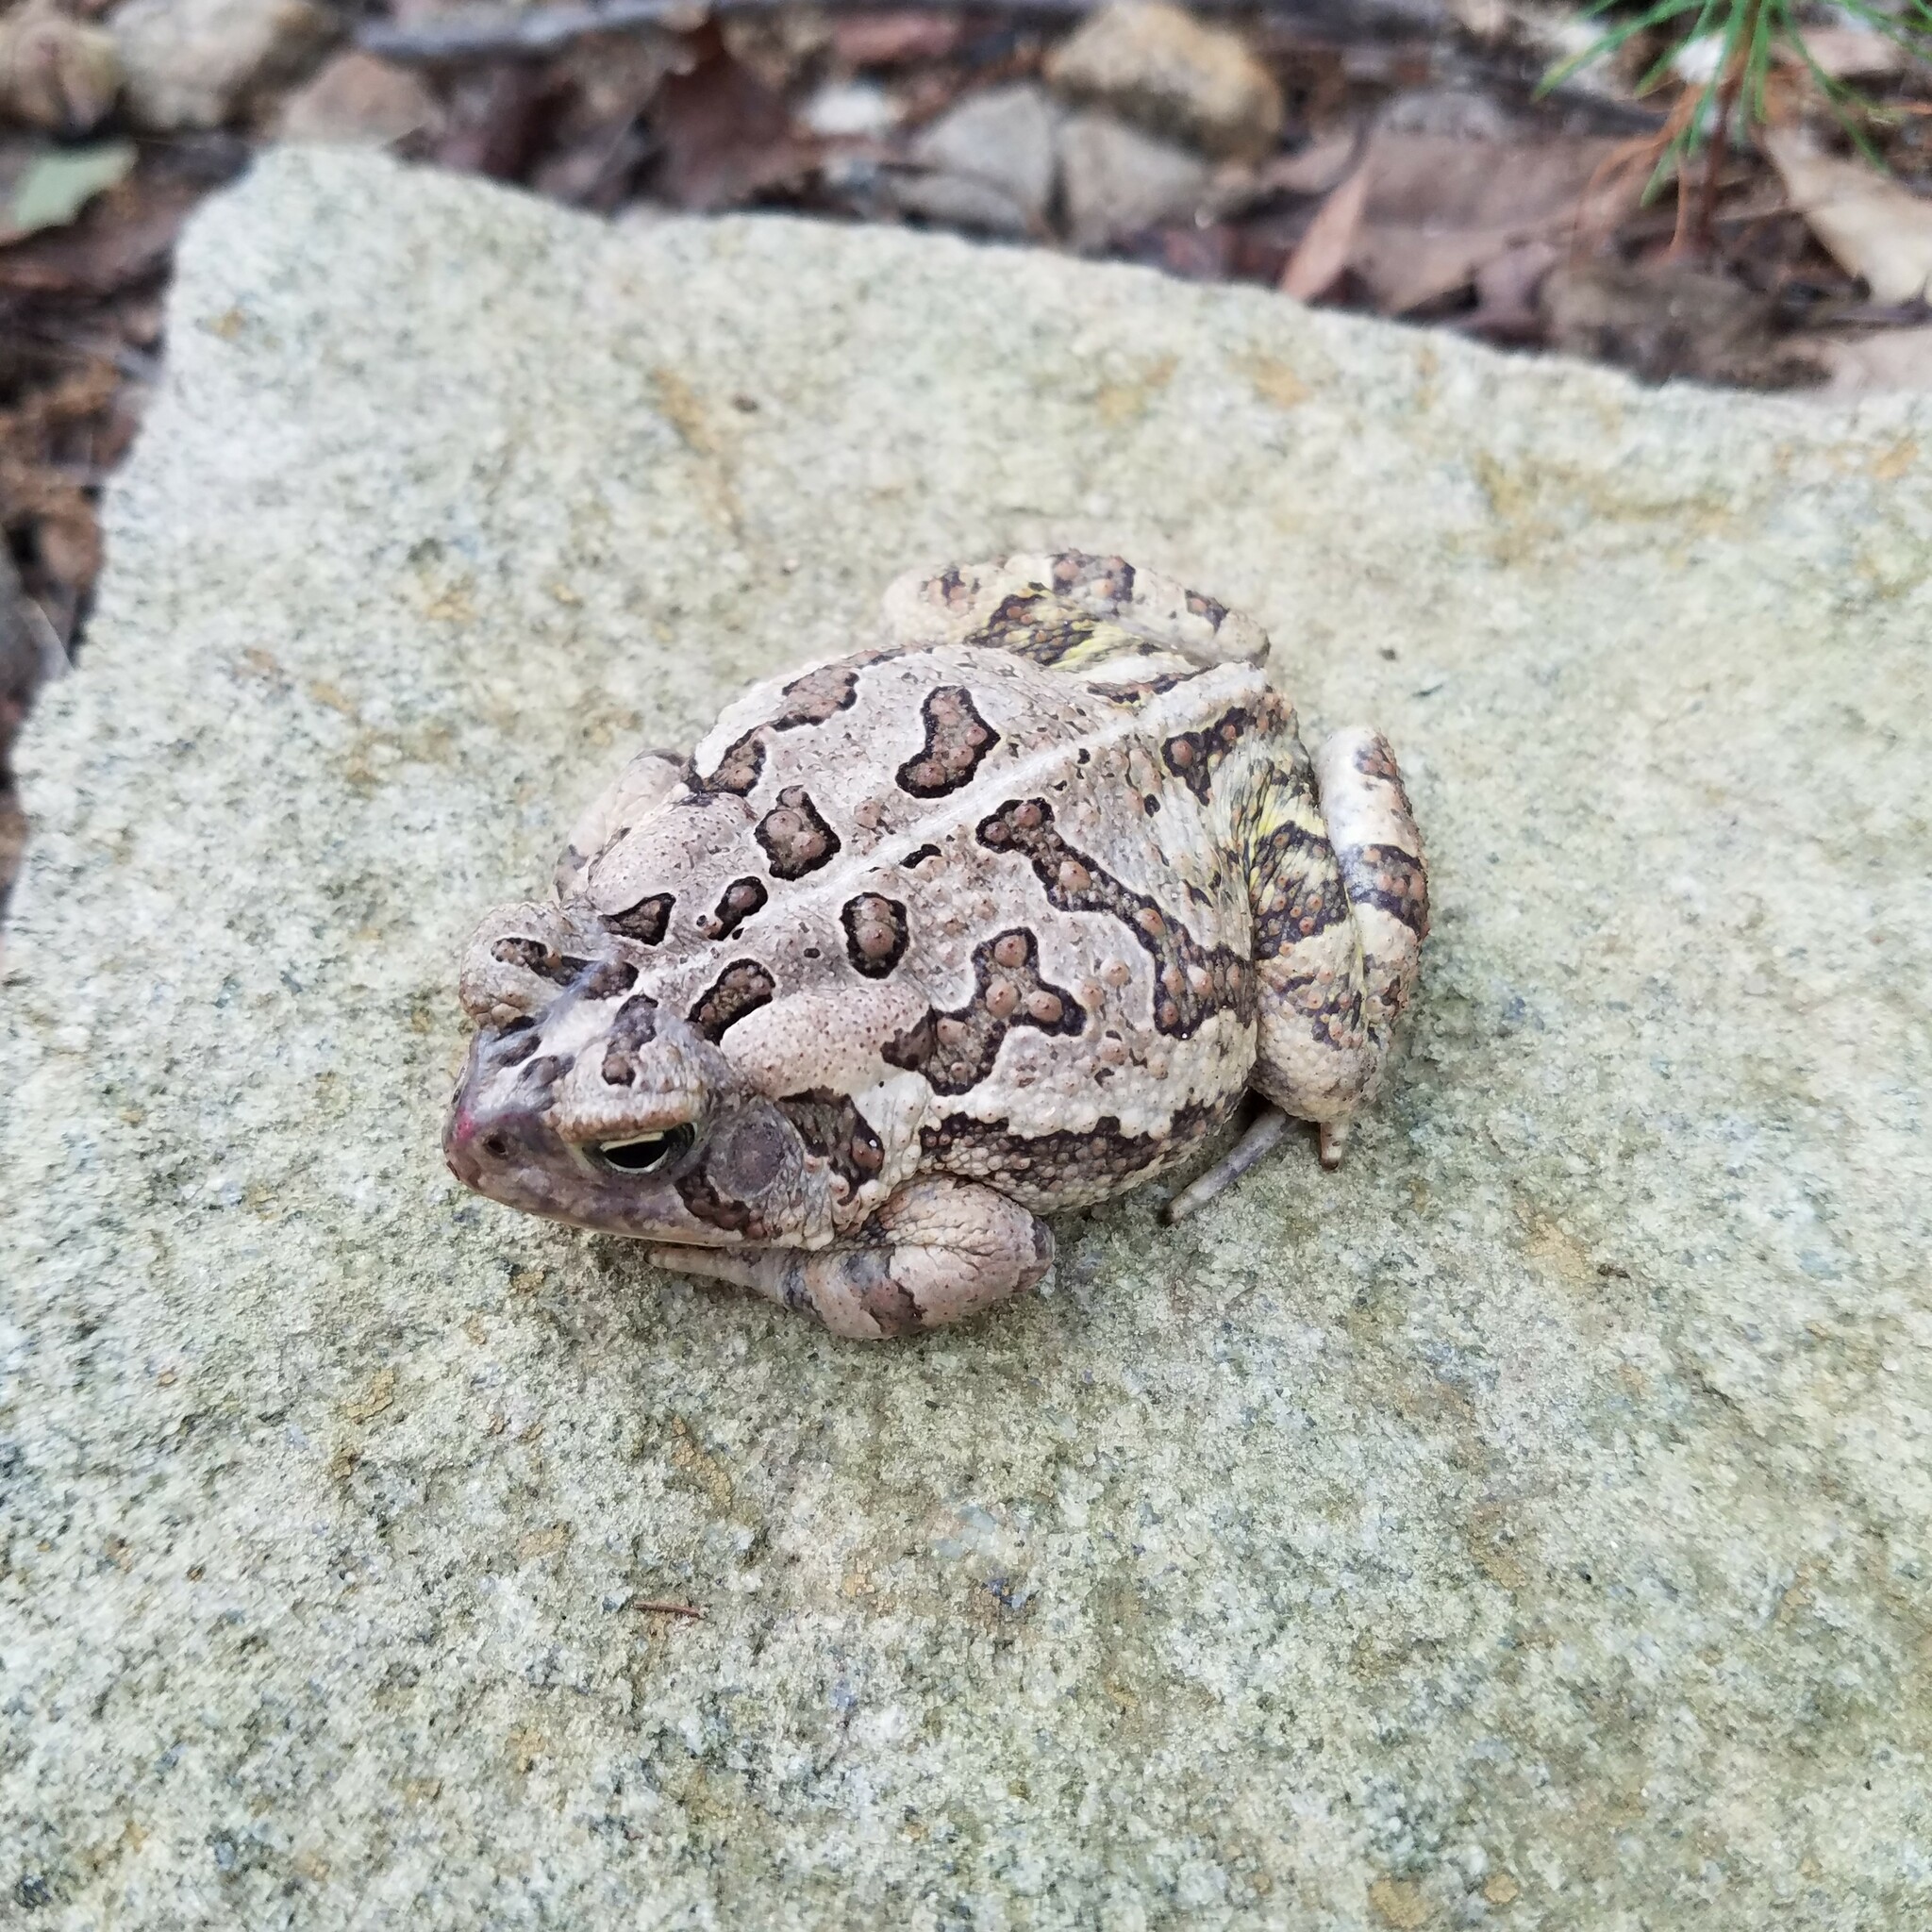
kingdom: Animalia
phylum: Chordata
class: Amphibia
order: Anura
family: Bufonidae
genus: Anaxyrus
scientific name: Anaxyrus fowleri
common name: Fowler's toad
